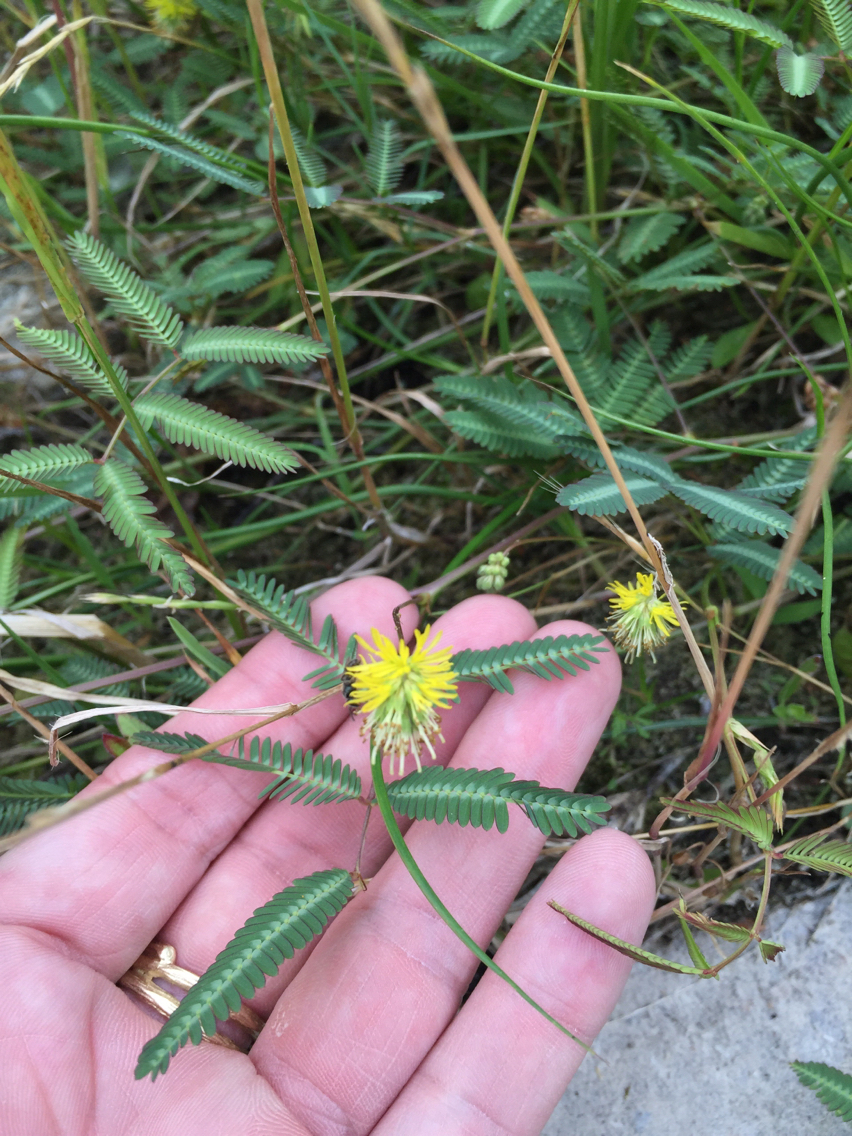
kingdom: Plantae
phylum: Tracheophyta
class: Magnoliopsida
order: Fabales
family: Fabaceae
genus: Neptunia
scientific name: Neptunia pubescens
